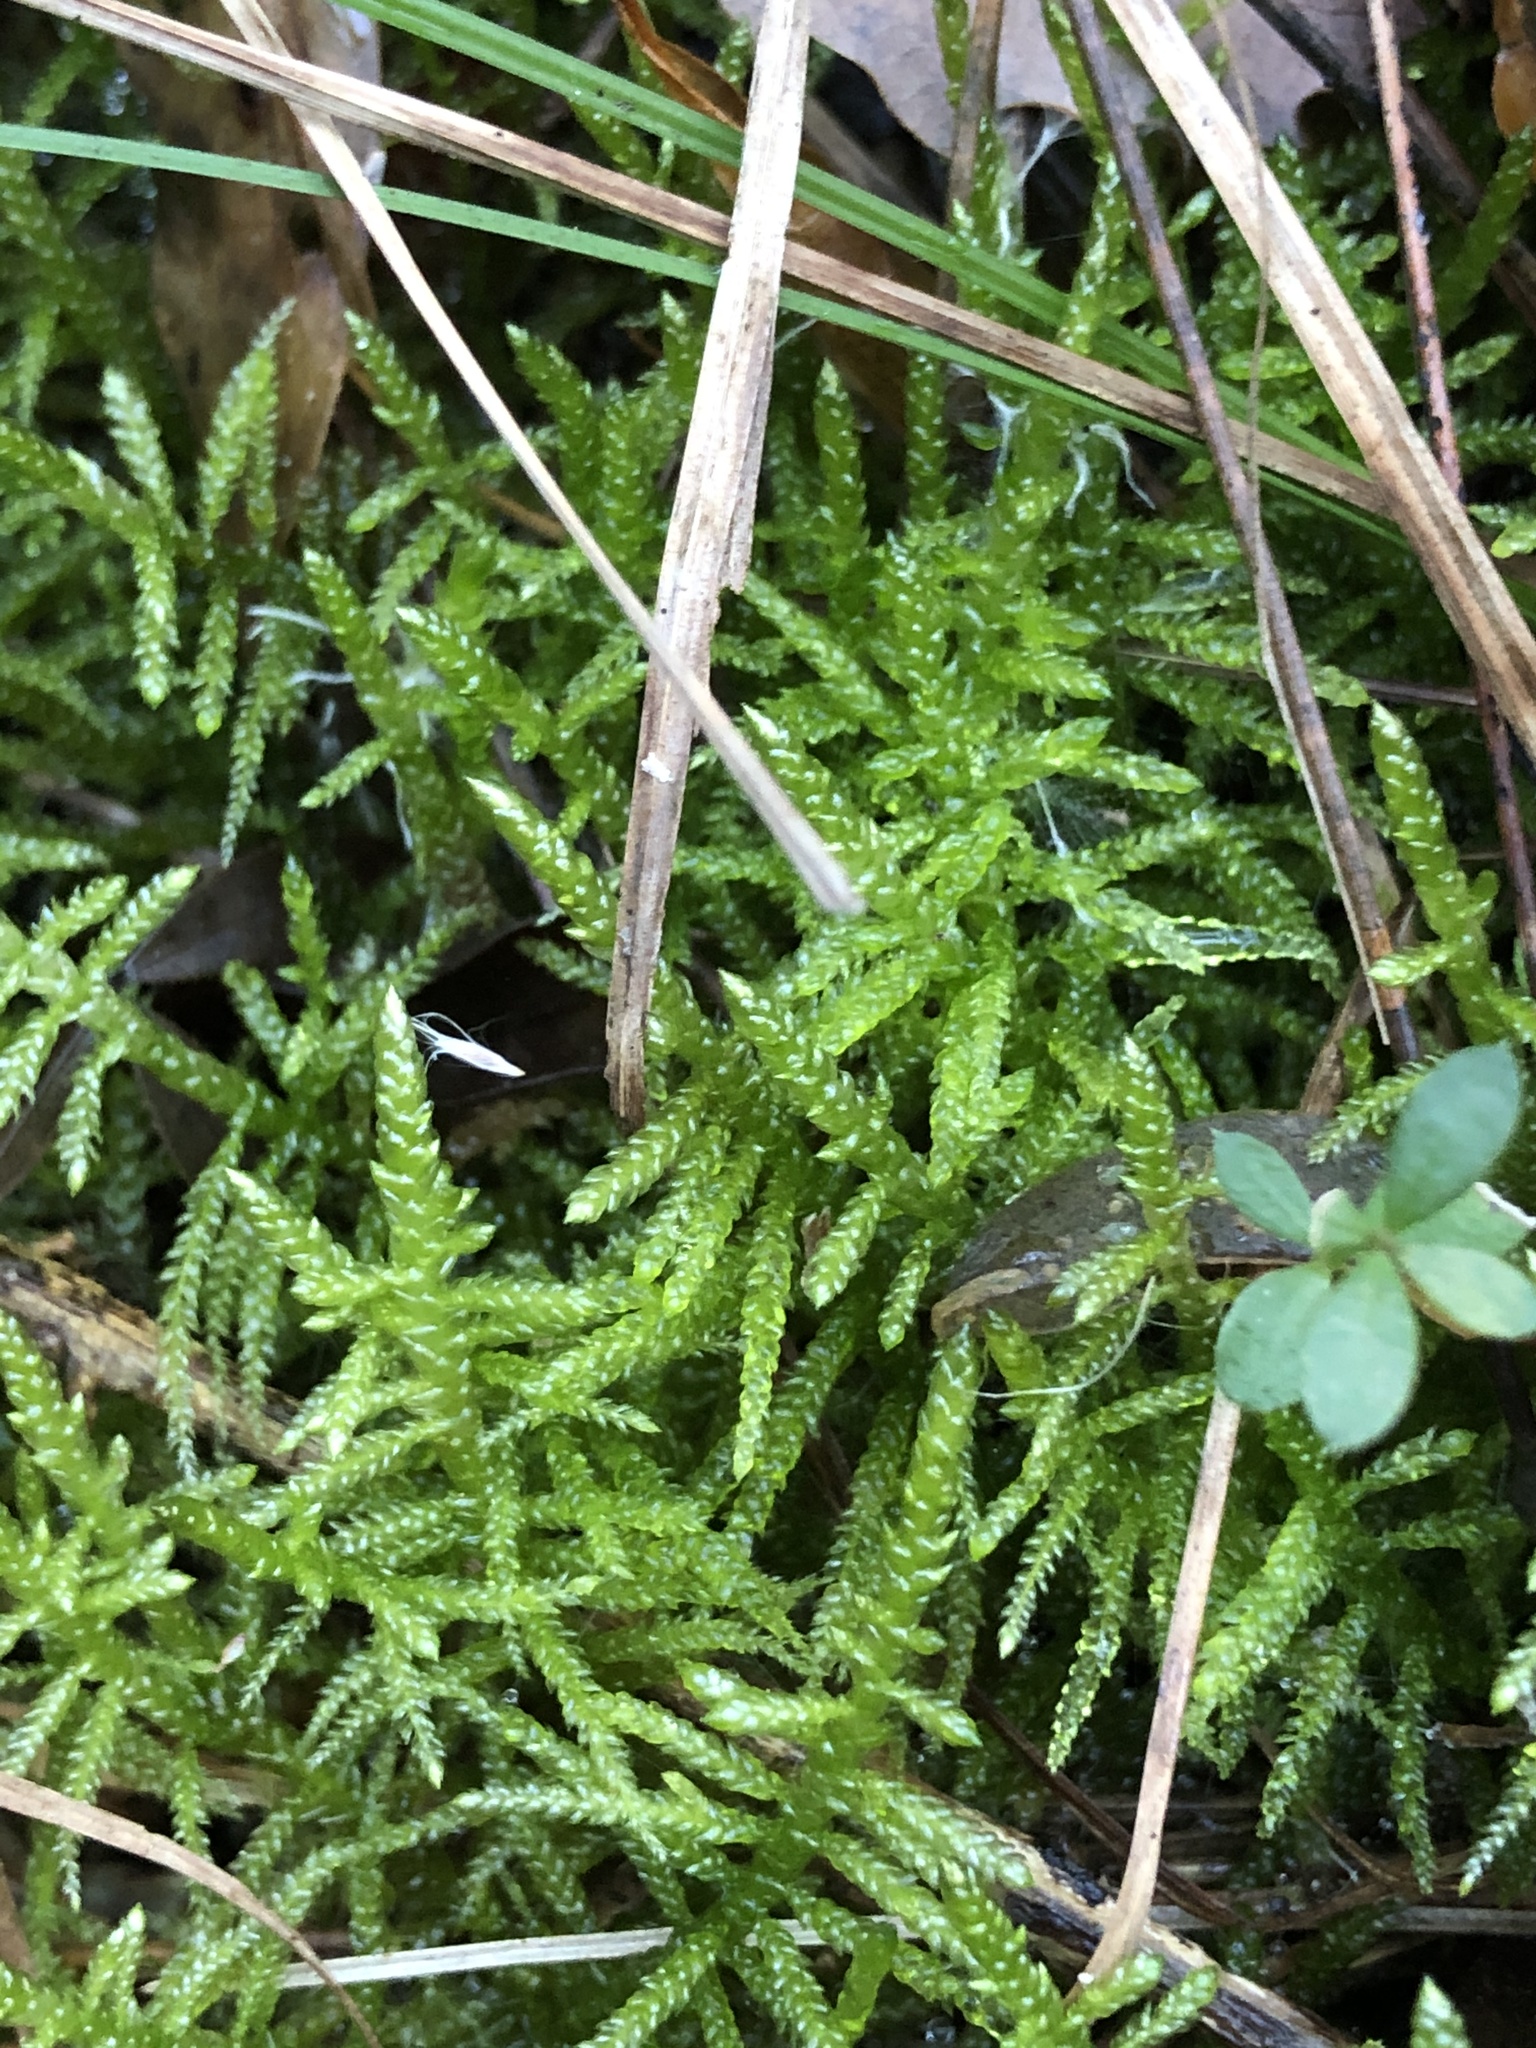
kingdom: Plantae
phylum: Bryophyta
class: Bryopsida
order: Hypnales
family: Brachytheciaceae
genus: Pseudoscleropodium
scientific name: Pseudoscleropodium purum
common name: Neat feather-moss
